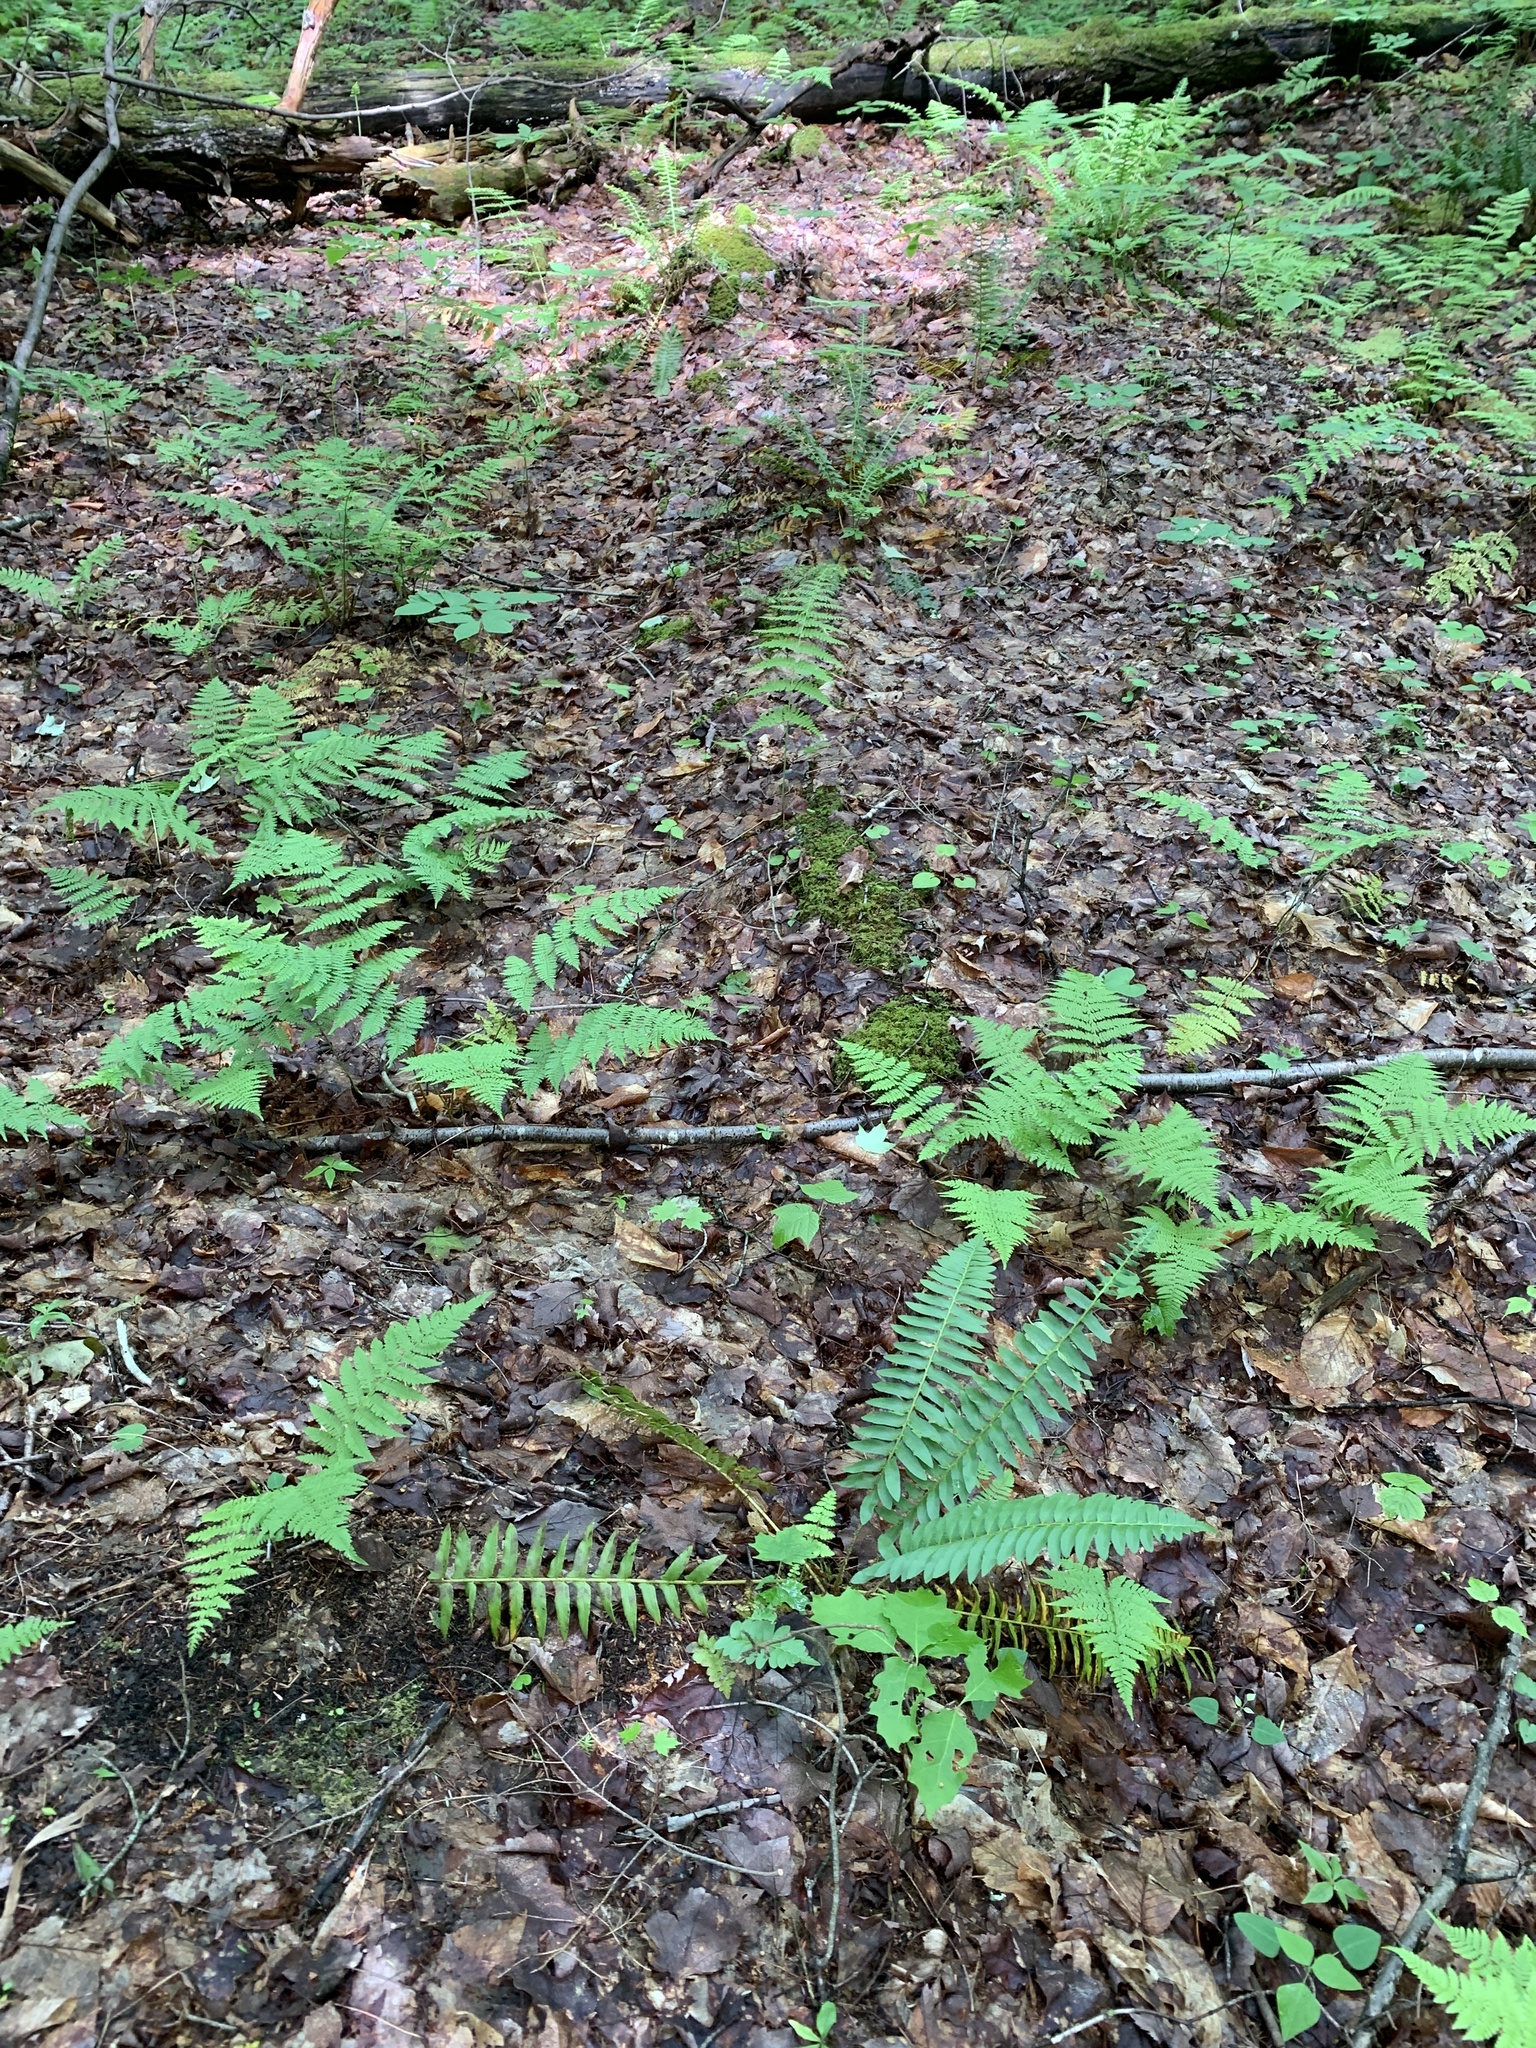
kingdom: Plantae
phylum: Tracheophyta
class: Polypodiopsida
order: Polypodiales
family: Dryopteridaceae
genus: Polystichum
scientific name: Polystichum acrostichoides
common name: Christmas fern
